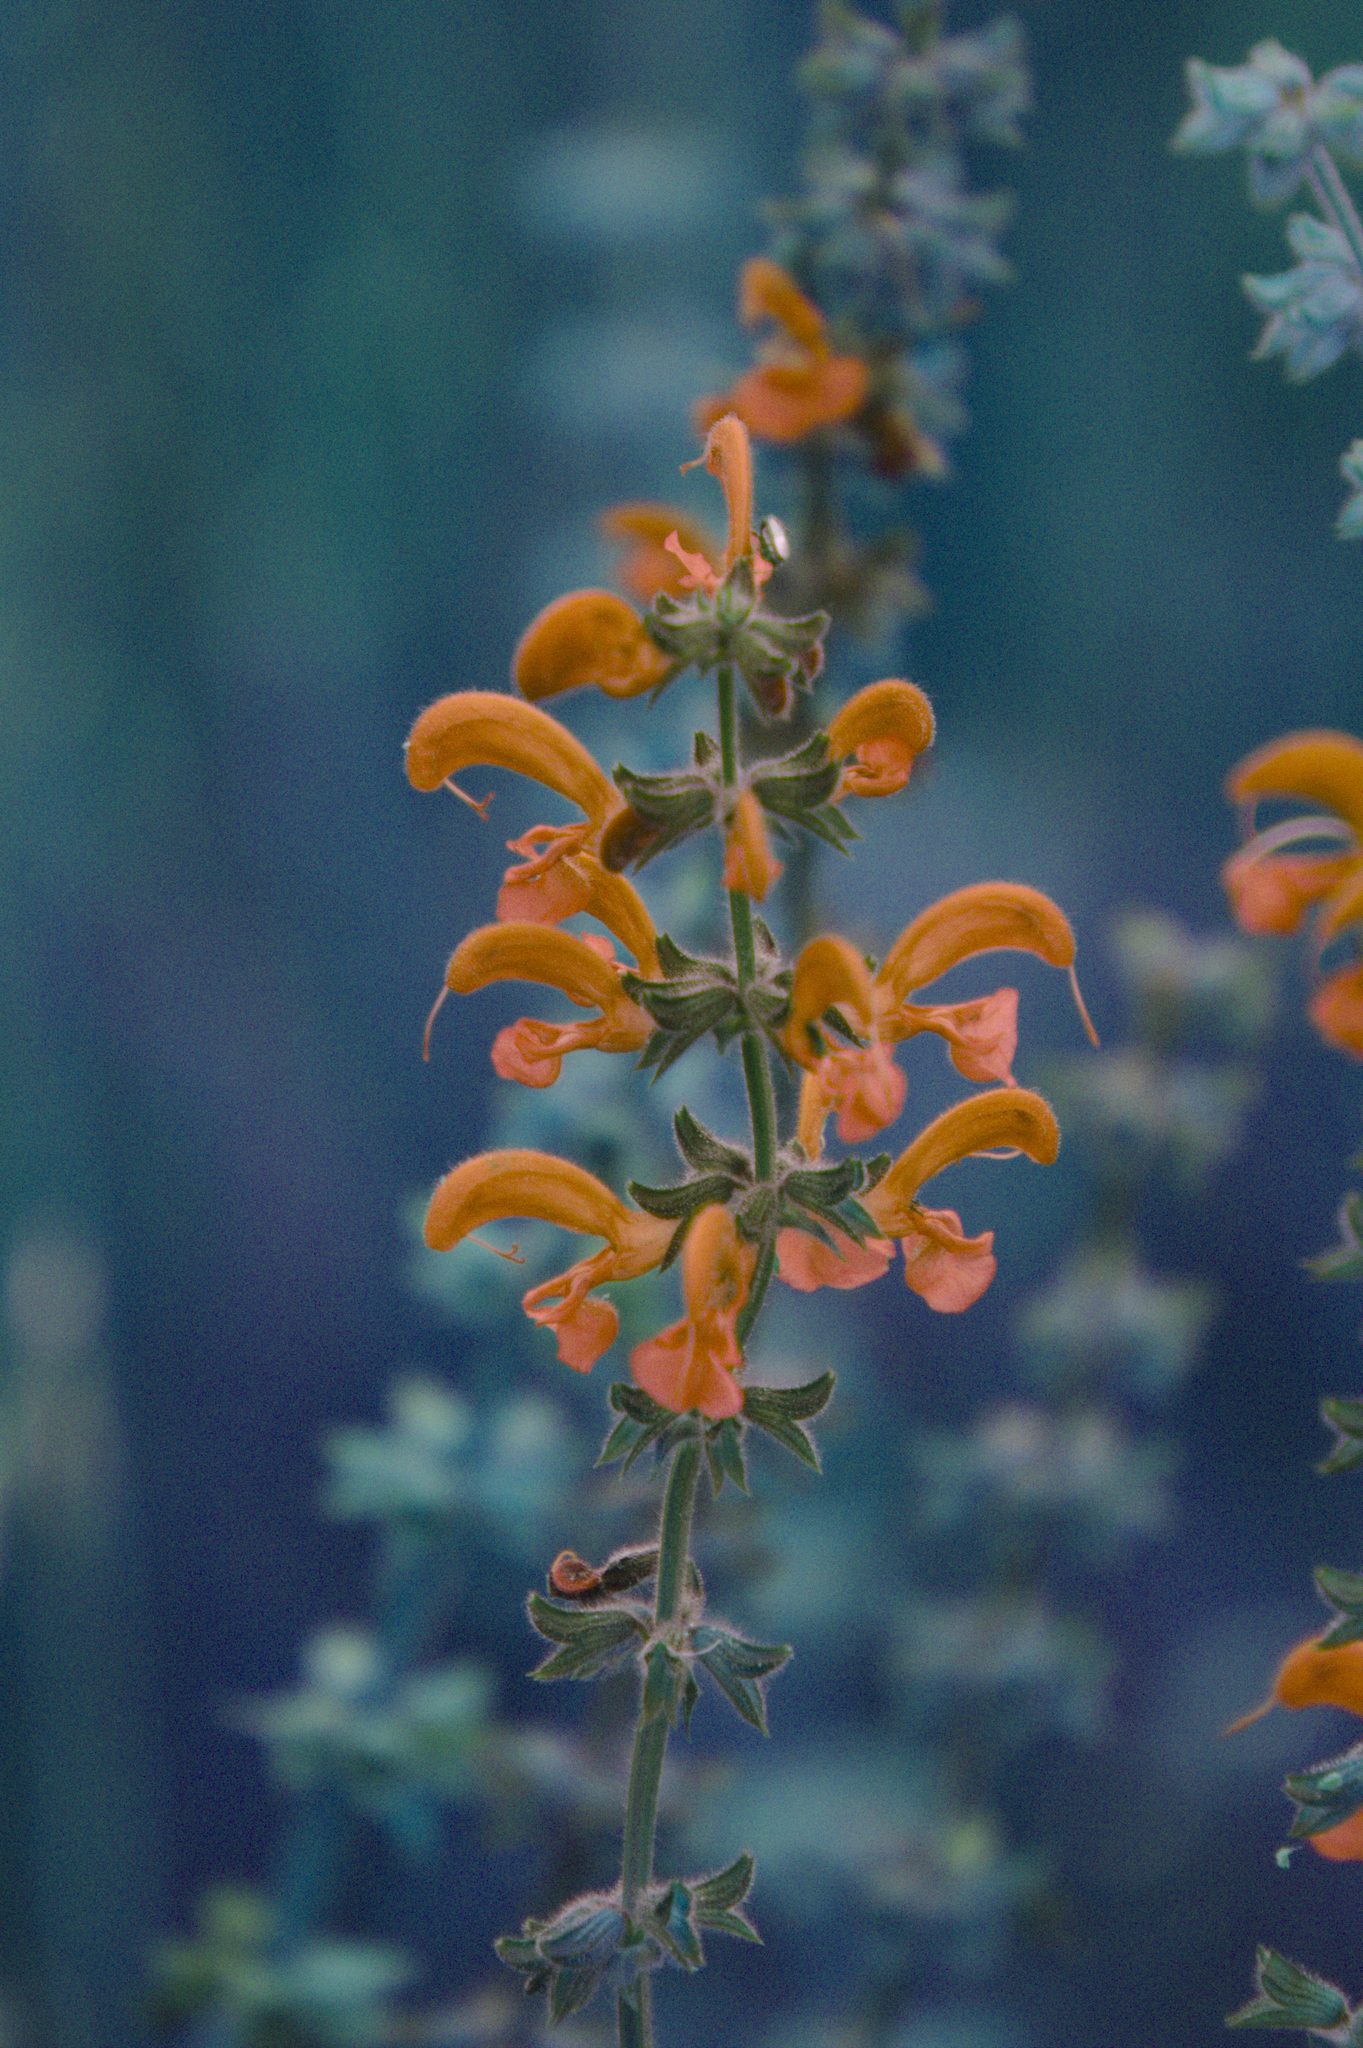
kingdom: Plantae
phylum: Tracheophyta
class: Magnoliopsida
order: Lamiales
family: Lamiaceae
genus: Salvia
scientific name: Salvia pratensis
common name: Meadow sage
